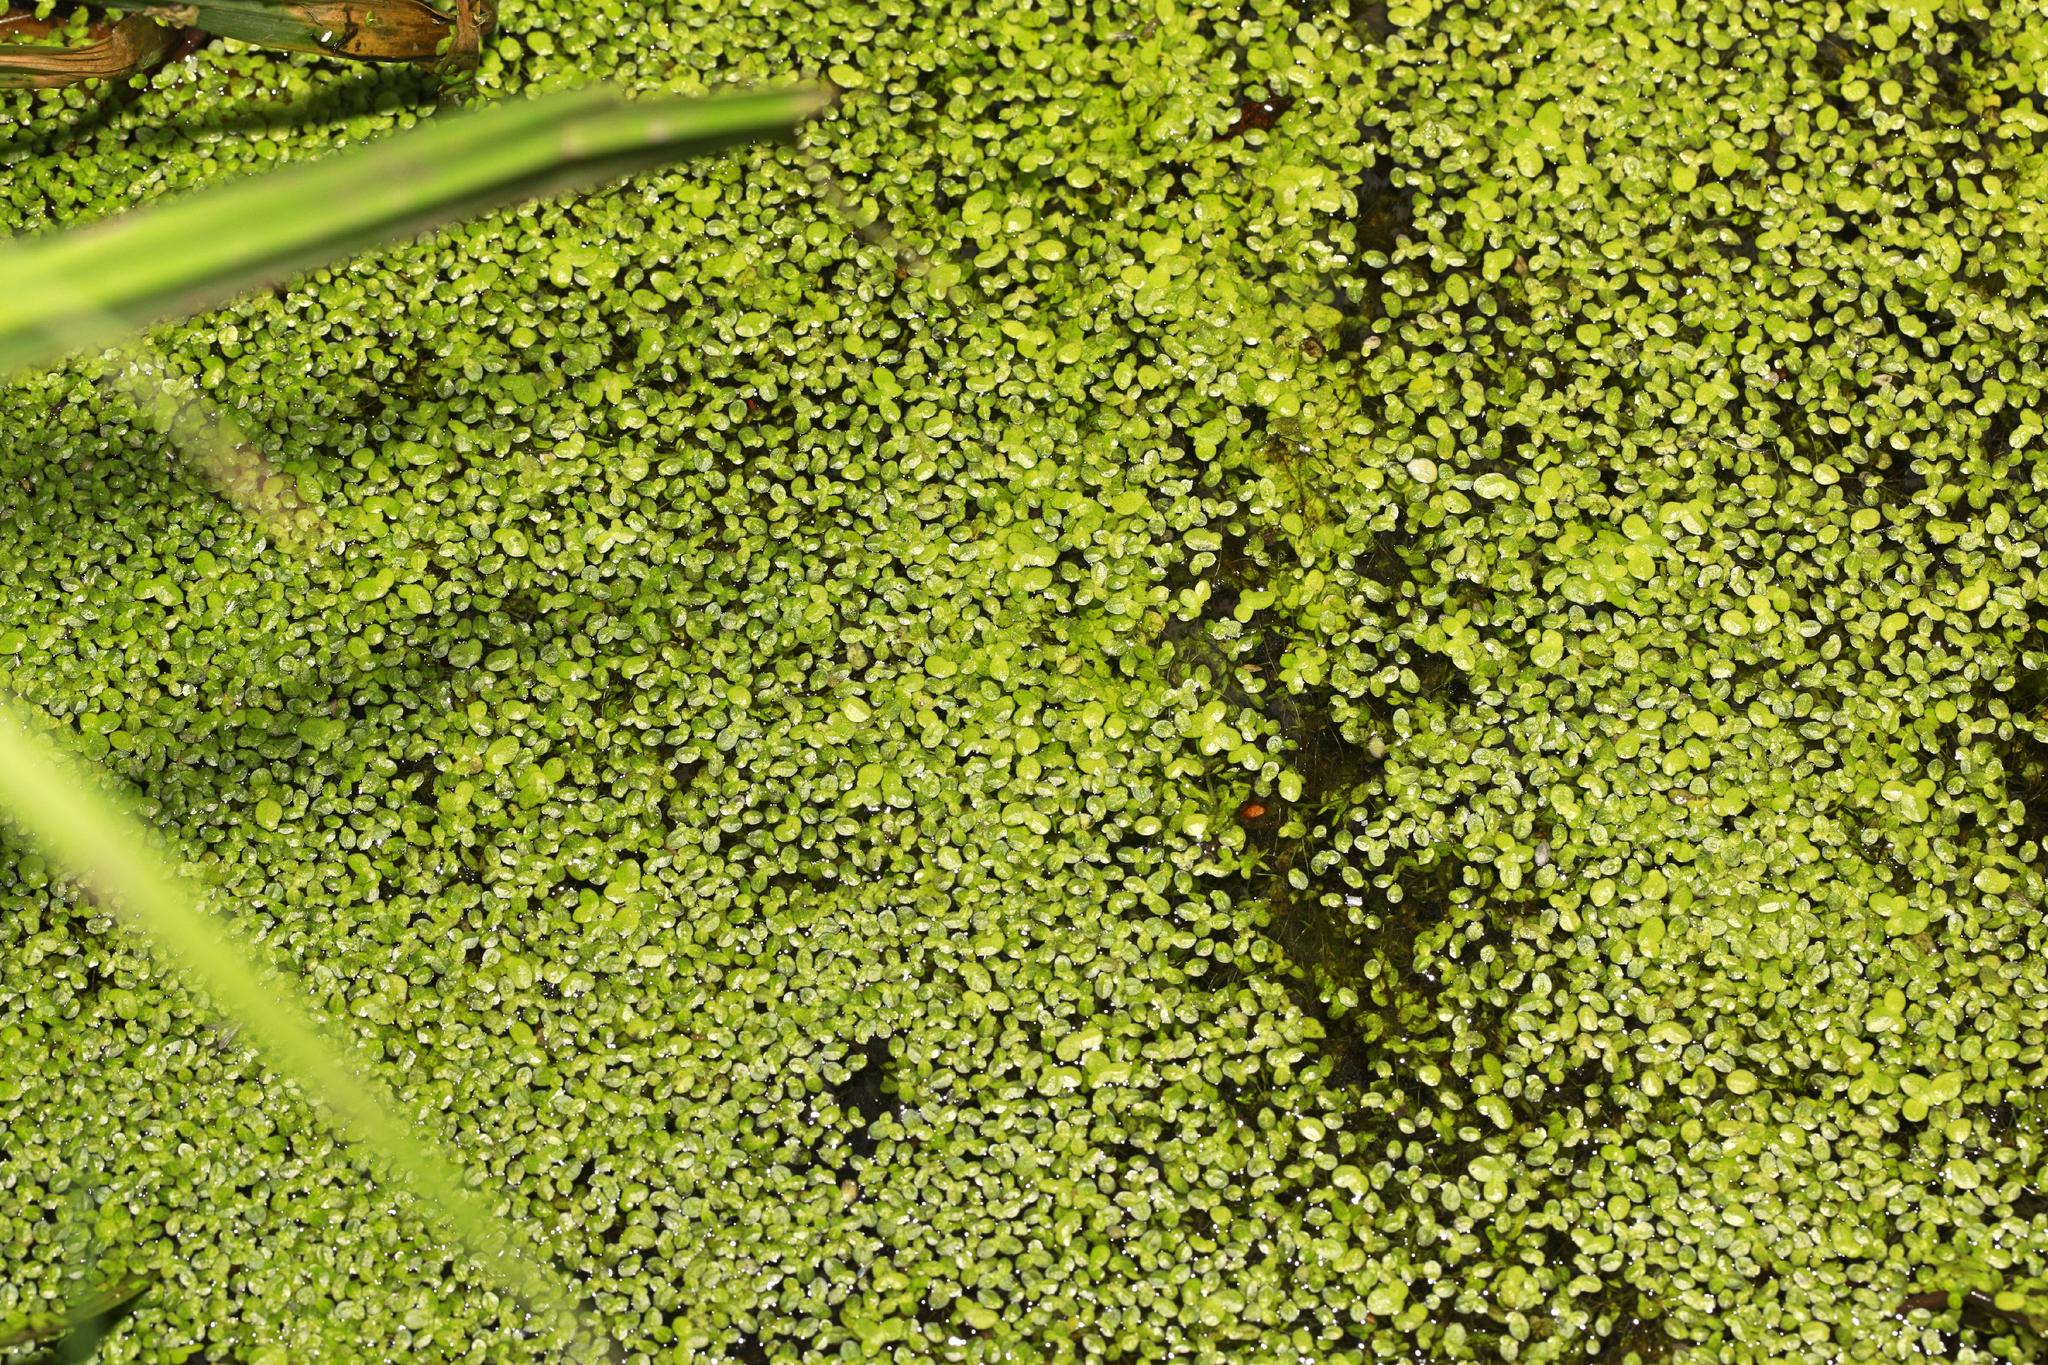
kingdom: Plantae
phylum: Tracheophyta
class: Liliopsida
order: Alismatales
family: Araceae
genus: Lemna
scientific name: Lemna minor
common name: Common duckweed
